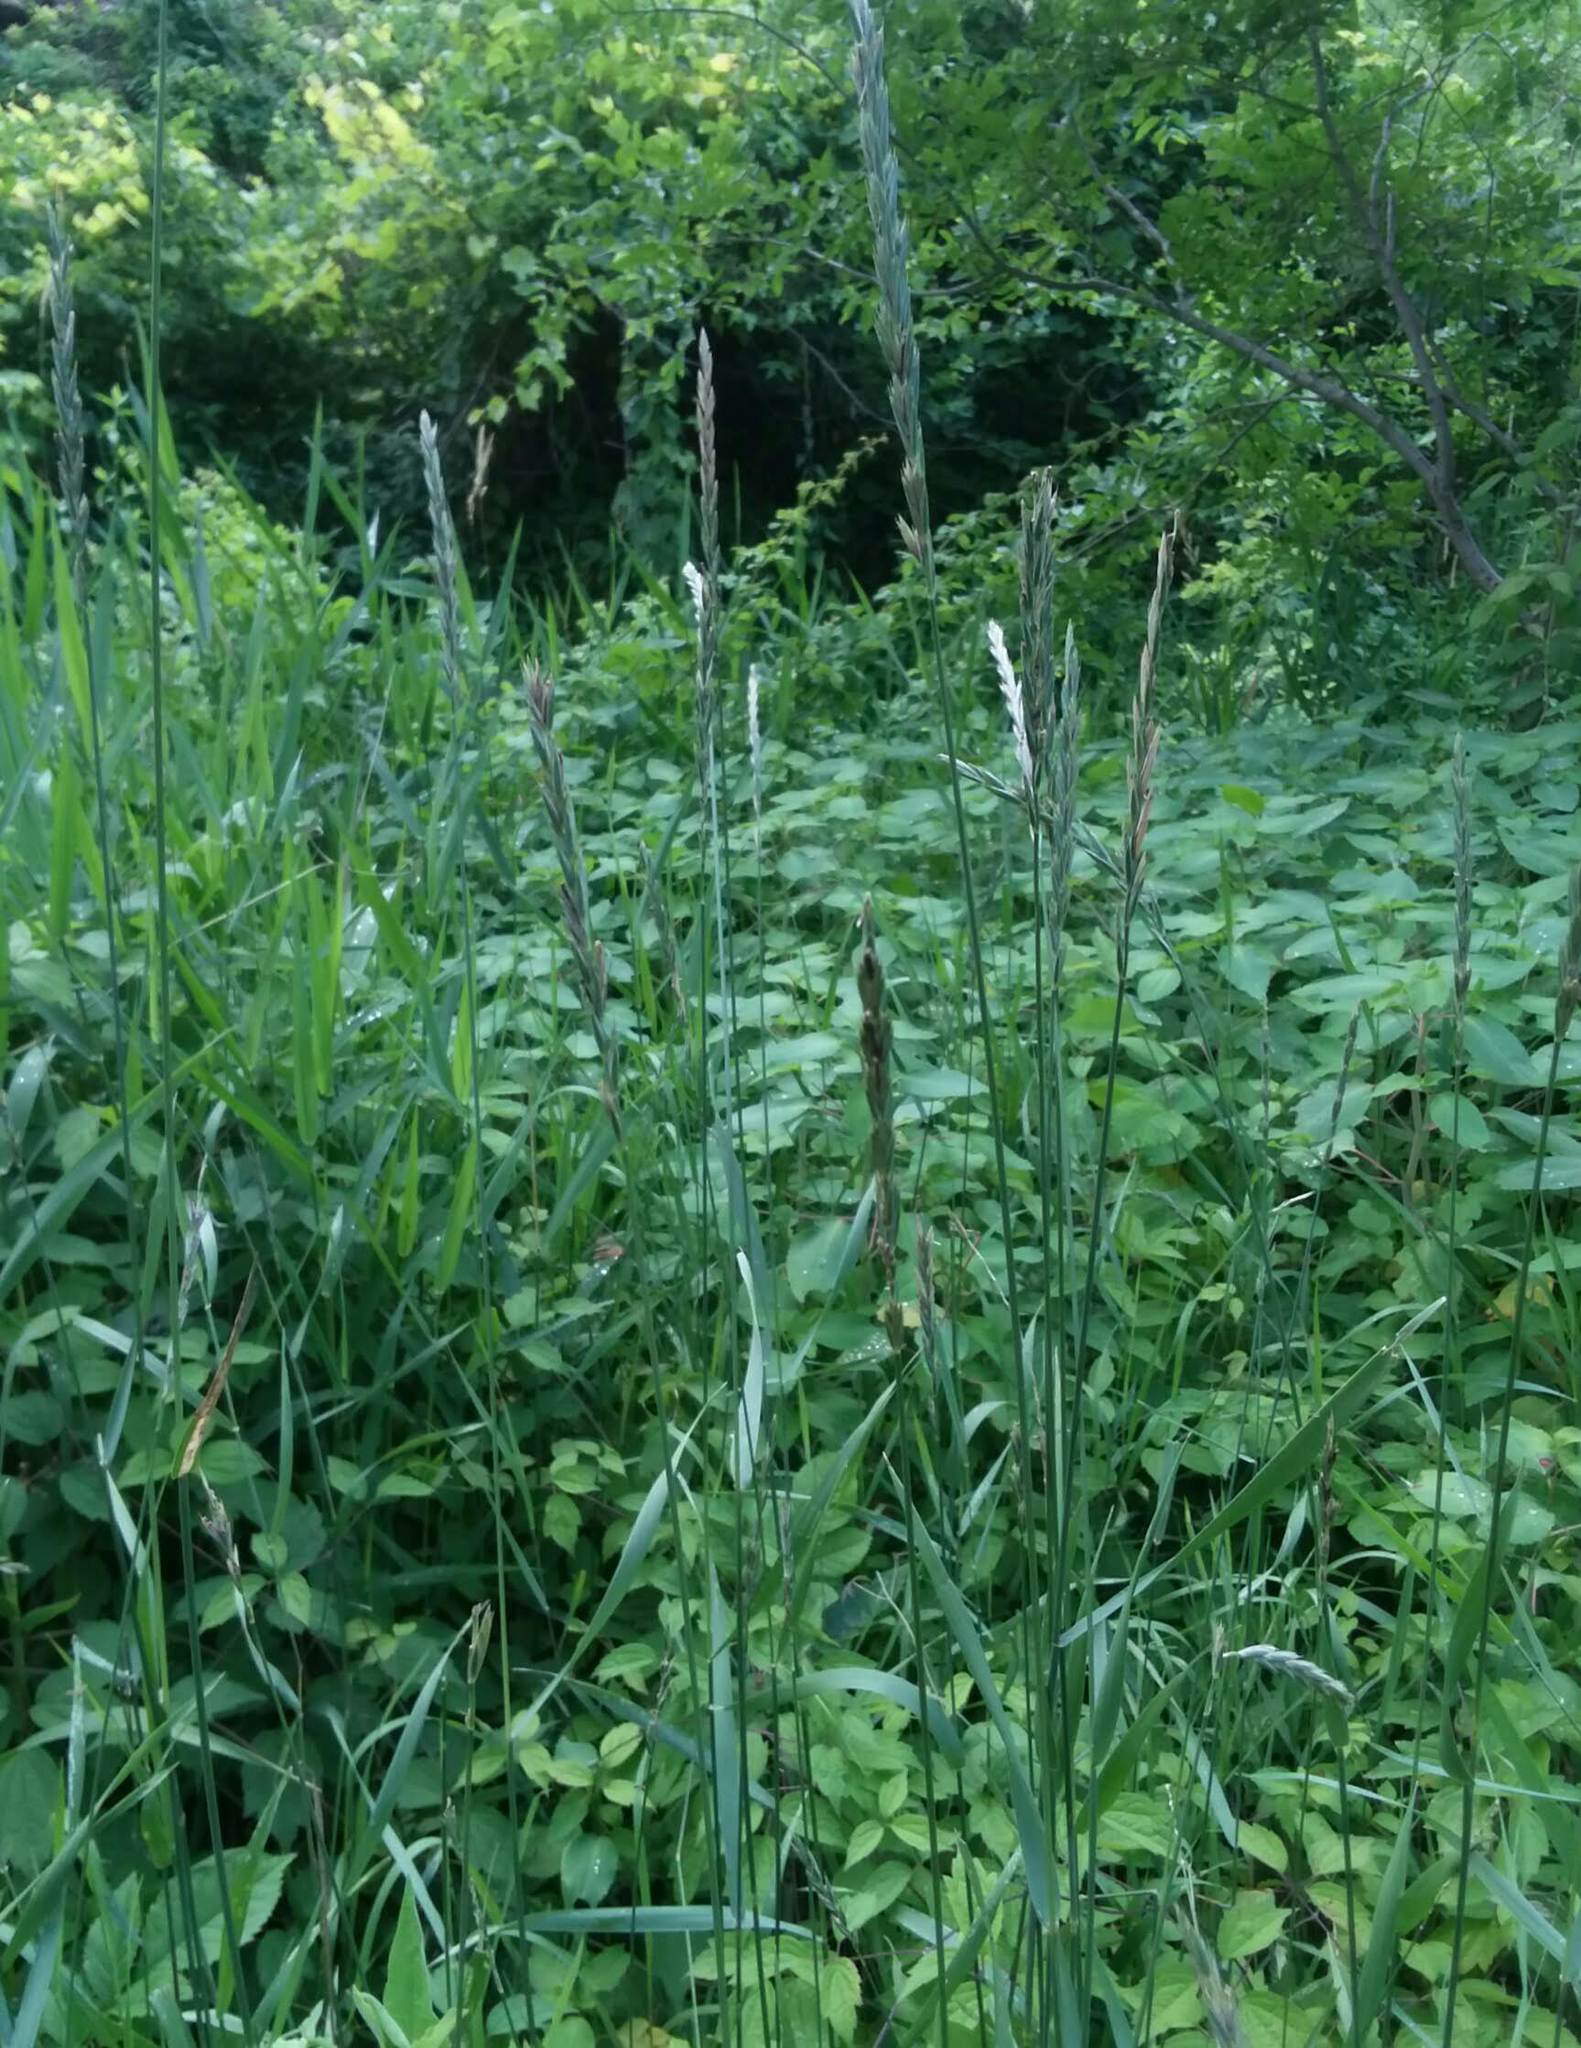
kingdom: Plantae
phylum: Tracheophyta
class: Liliopsida
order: Poales
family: Poaceae
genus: Elymus
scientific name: Elymus repens
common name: Quackgrass
